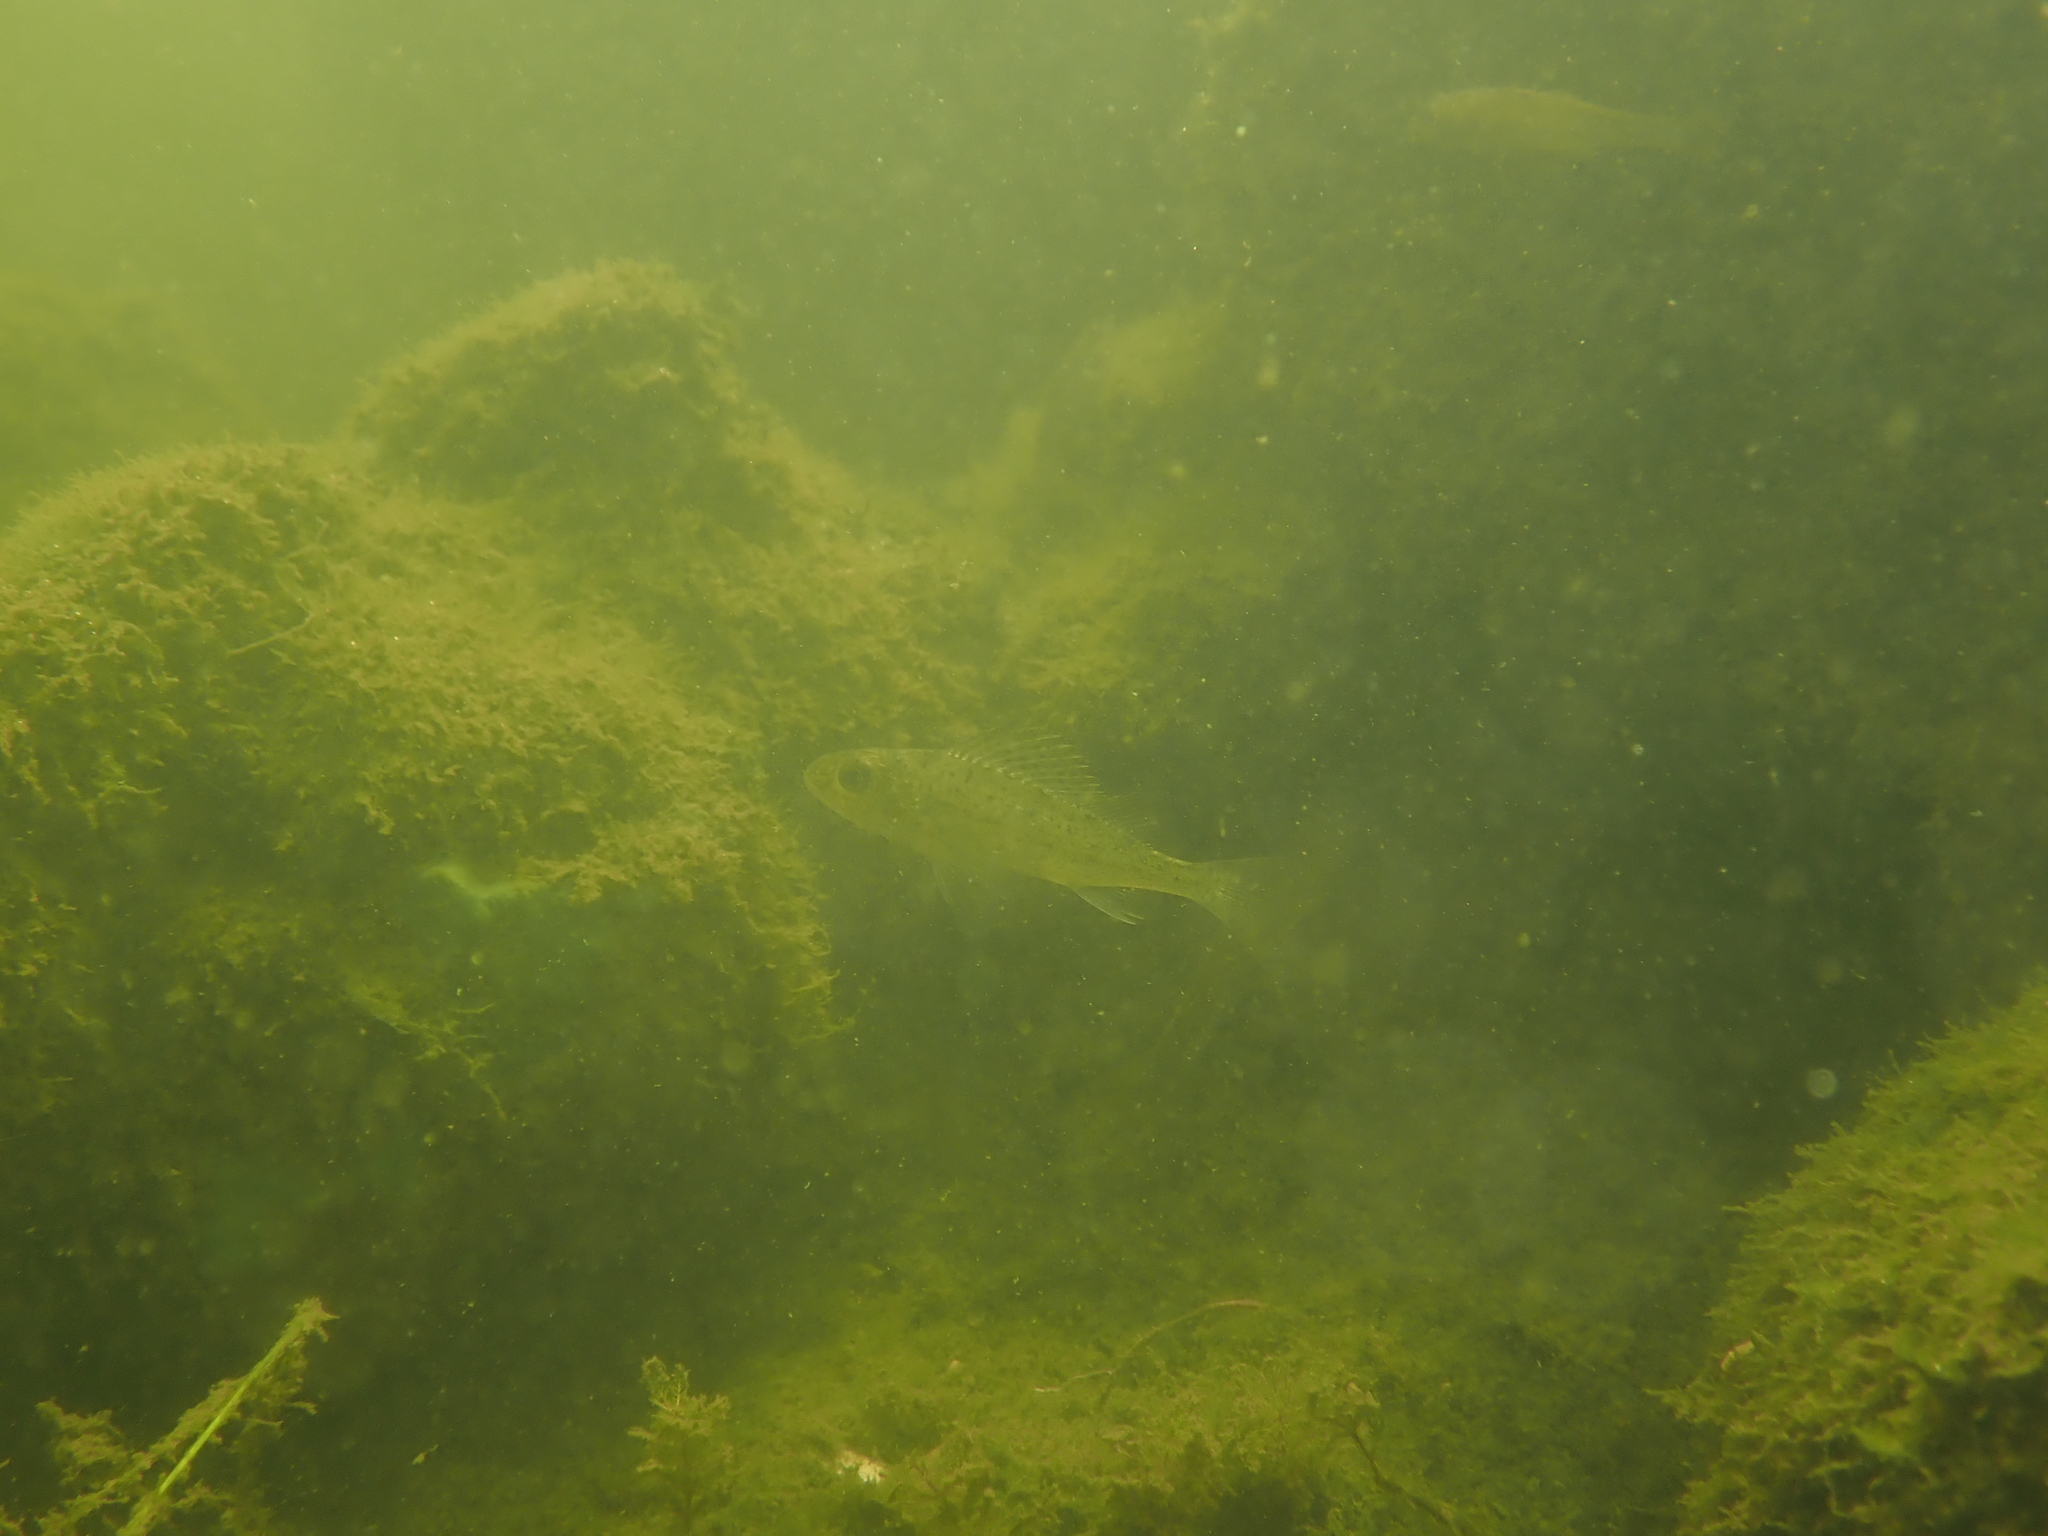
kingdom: Animalia
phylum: Chordata
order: Perciformes
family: Percidae
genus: Gymnocephalus
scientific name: Gymnocephalus cernua
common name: Ruffe
